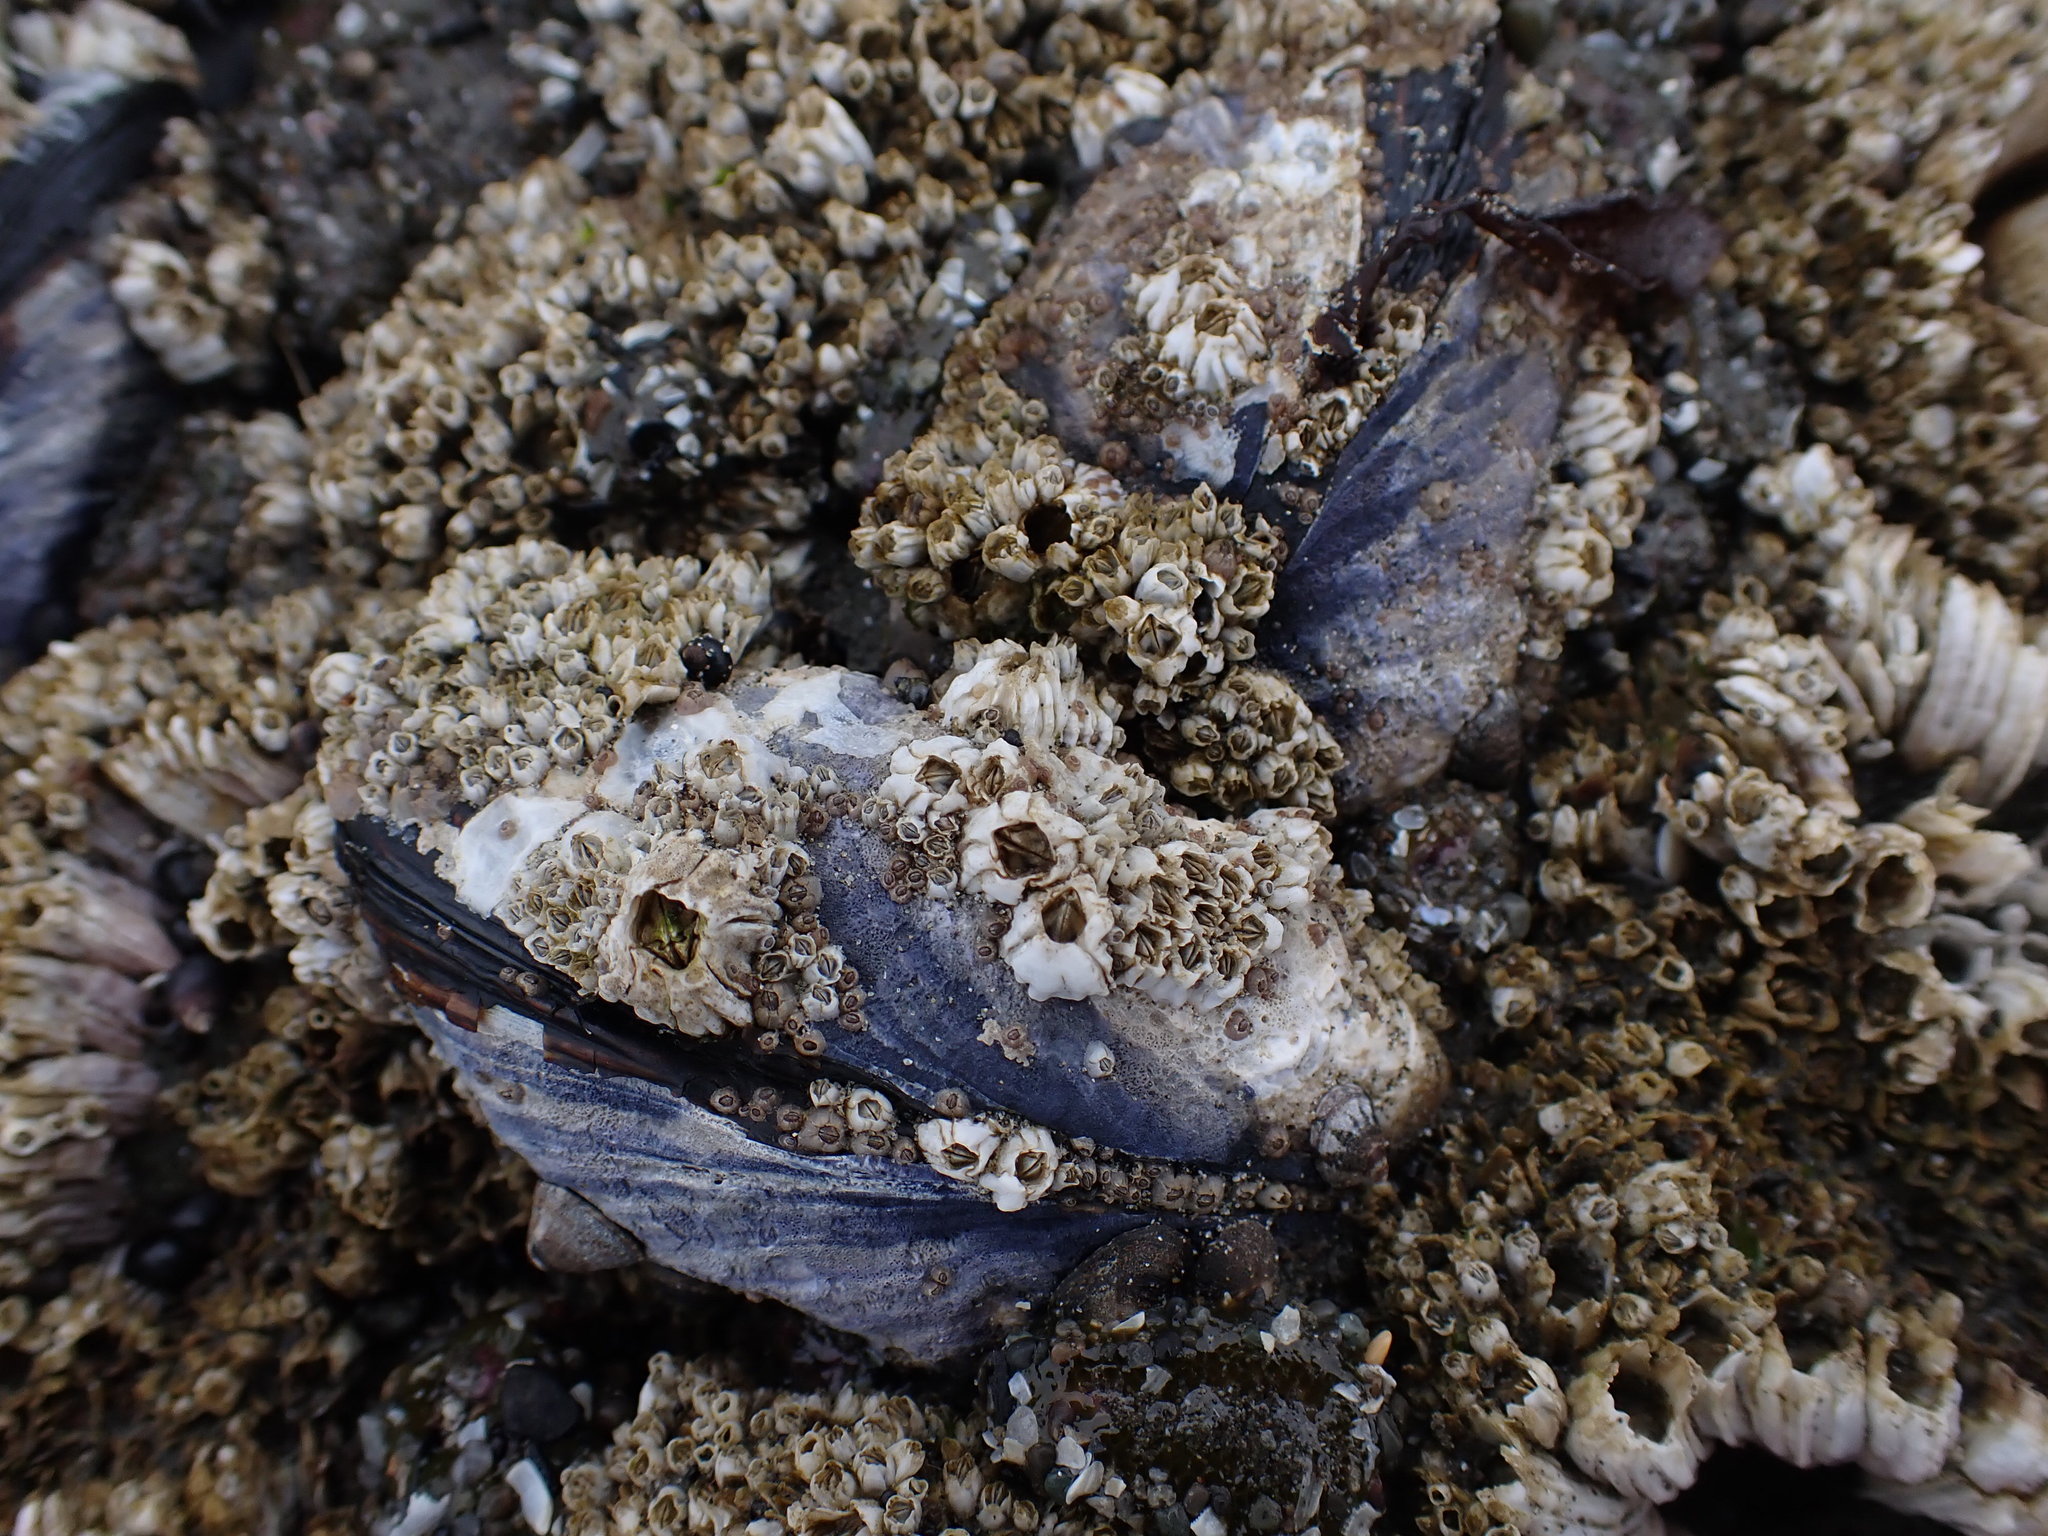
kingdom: Animalia
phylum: Mollusca
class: Bivalvia
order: Mytilida
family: Mytilidae
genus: Mytilus
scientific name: Mytilus californianus
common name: California mussel
